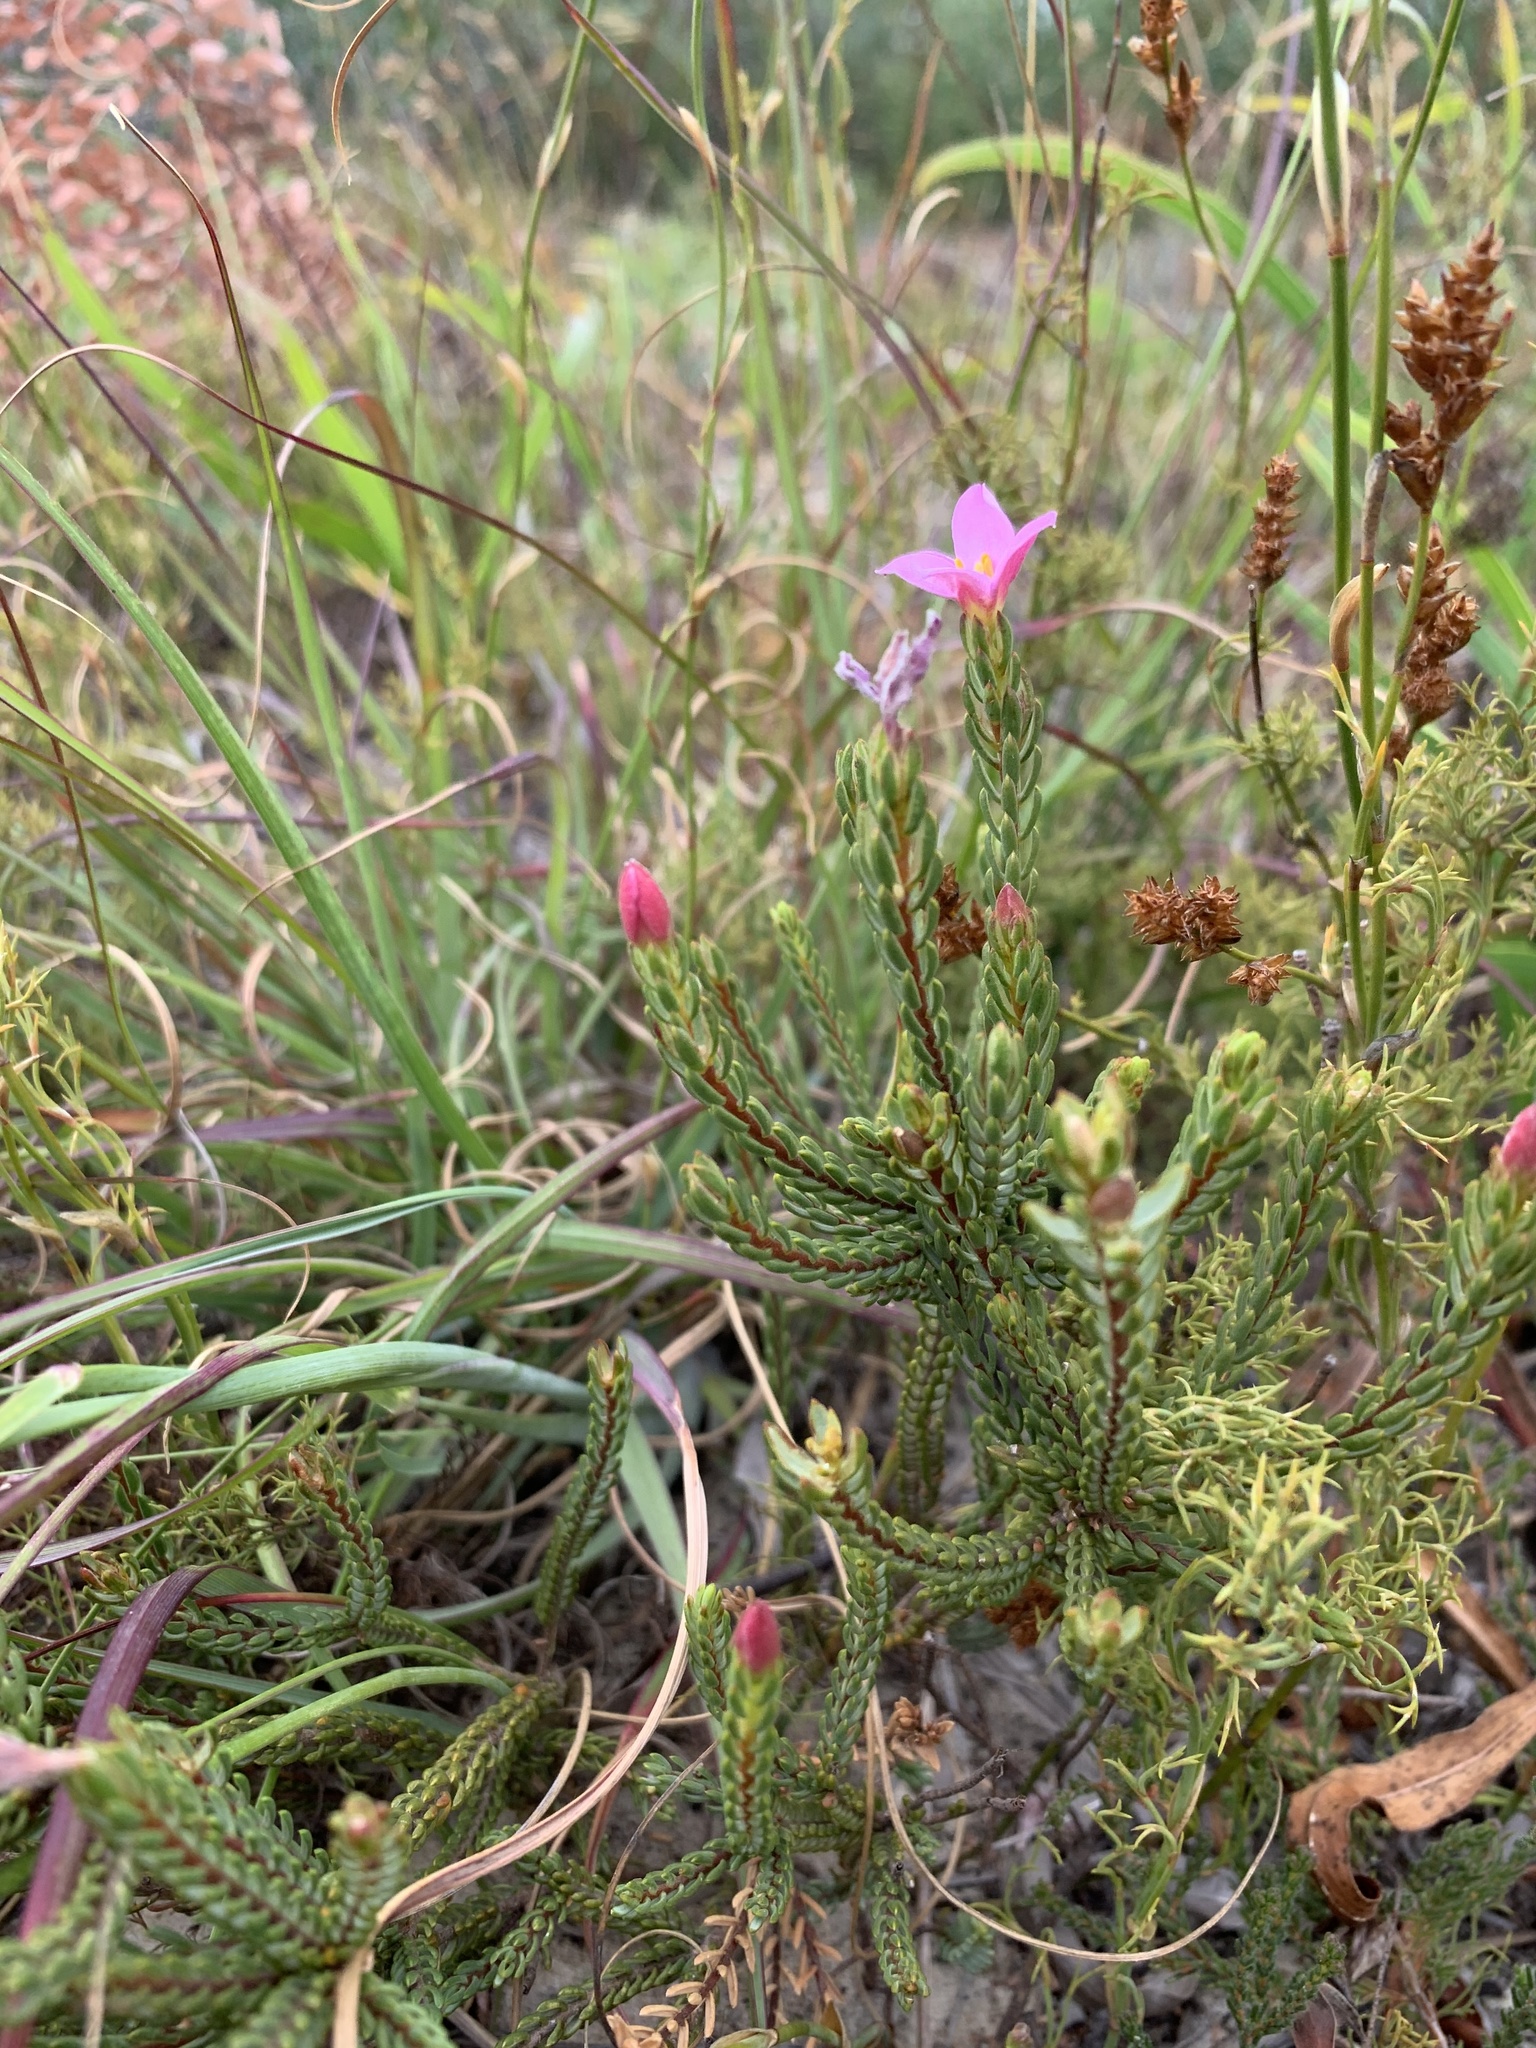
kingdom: Plantae
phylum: Tracheophyta
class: Magnoliopsida
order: Malvales
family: Thymelaeaceae
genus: Lachnaea
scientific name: Lachnaea grandiflora
